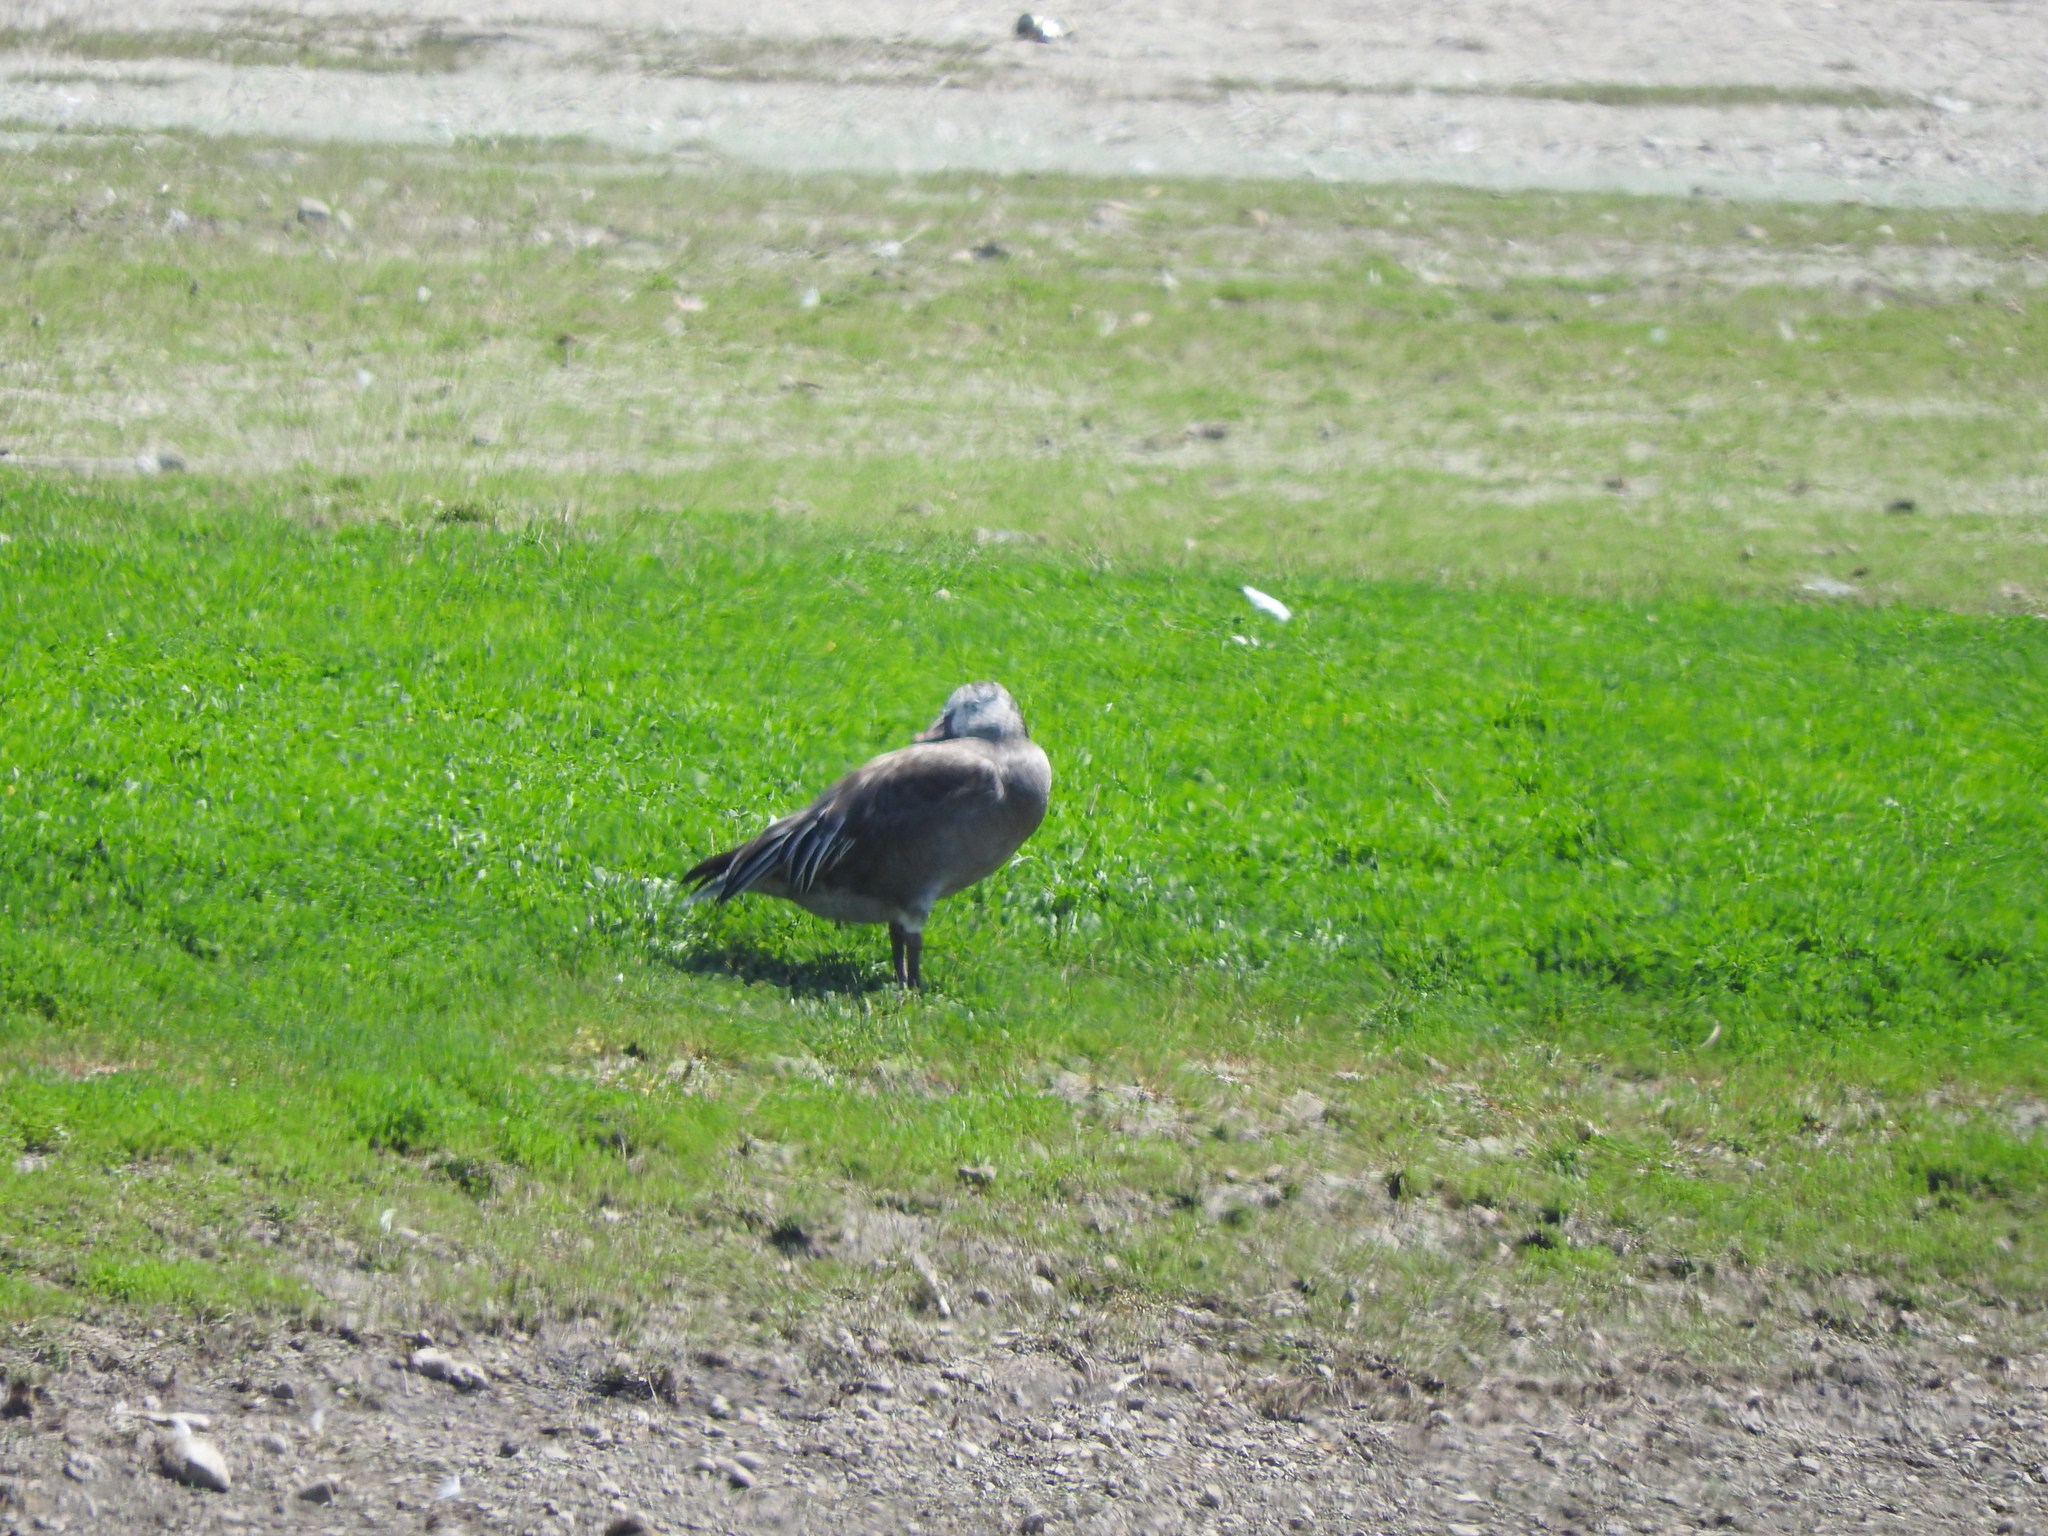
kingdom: Animalia
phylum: Chordata
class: Aves
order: Anseriformes
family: Anatidae
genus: Anser
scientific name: Anser caerulescens
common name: Snow goose
